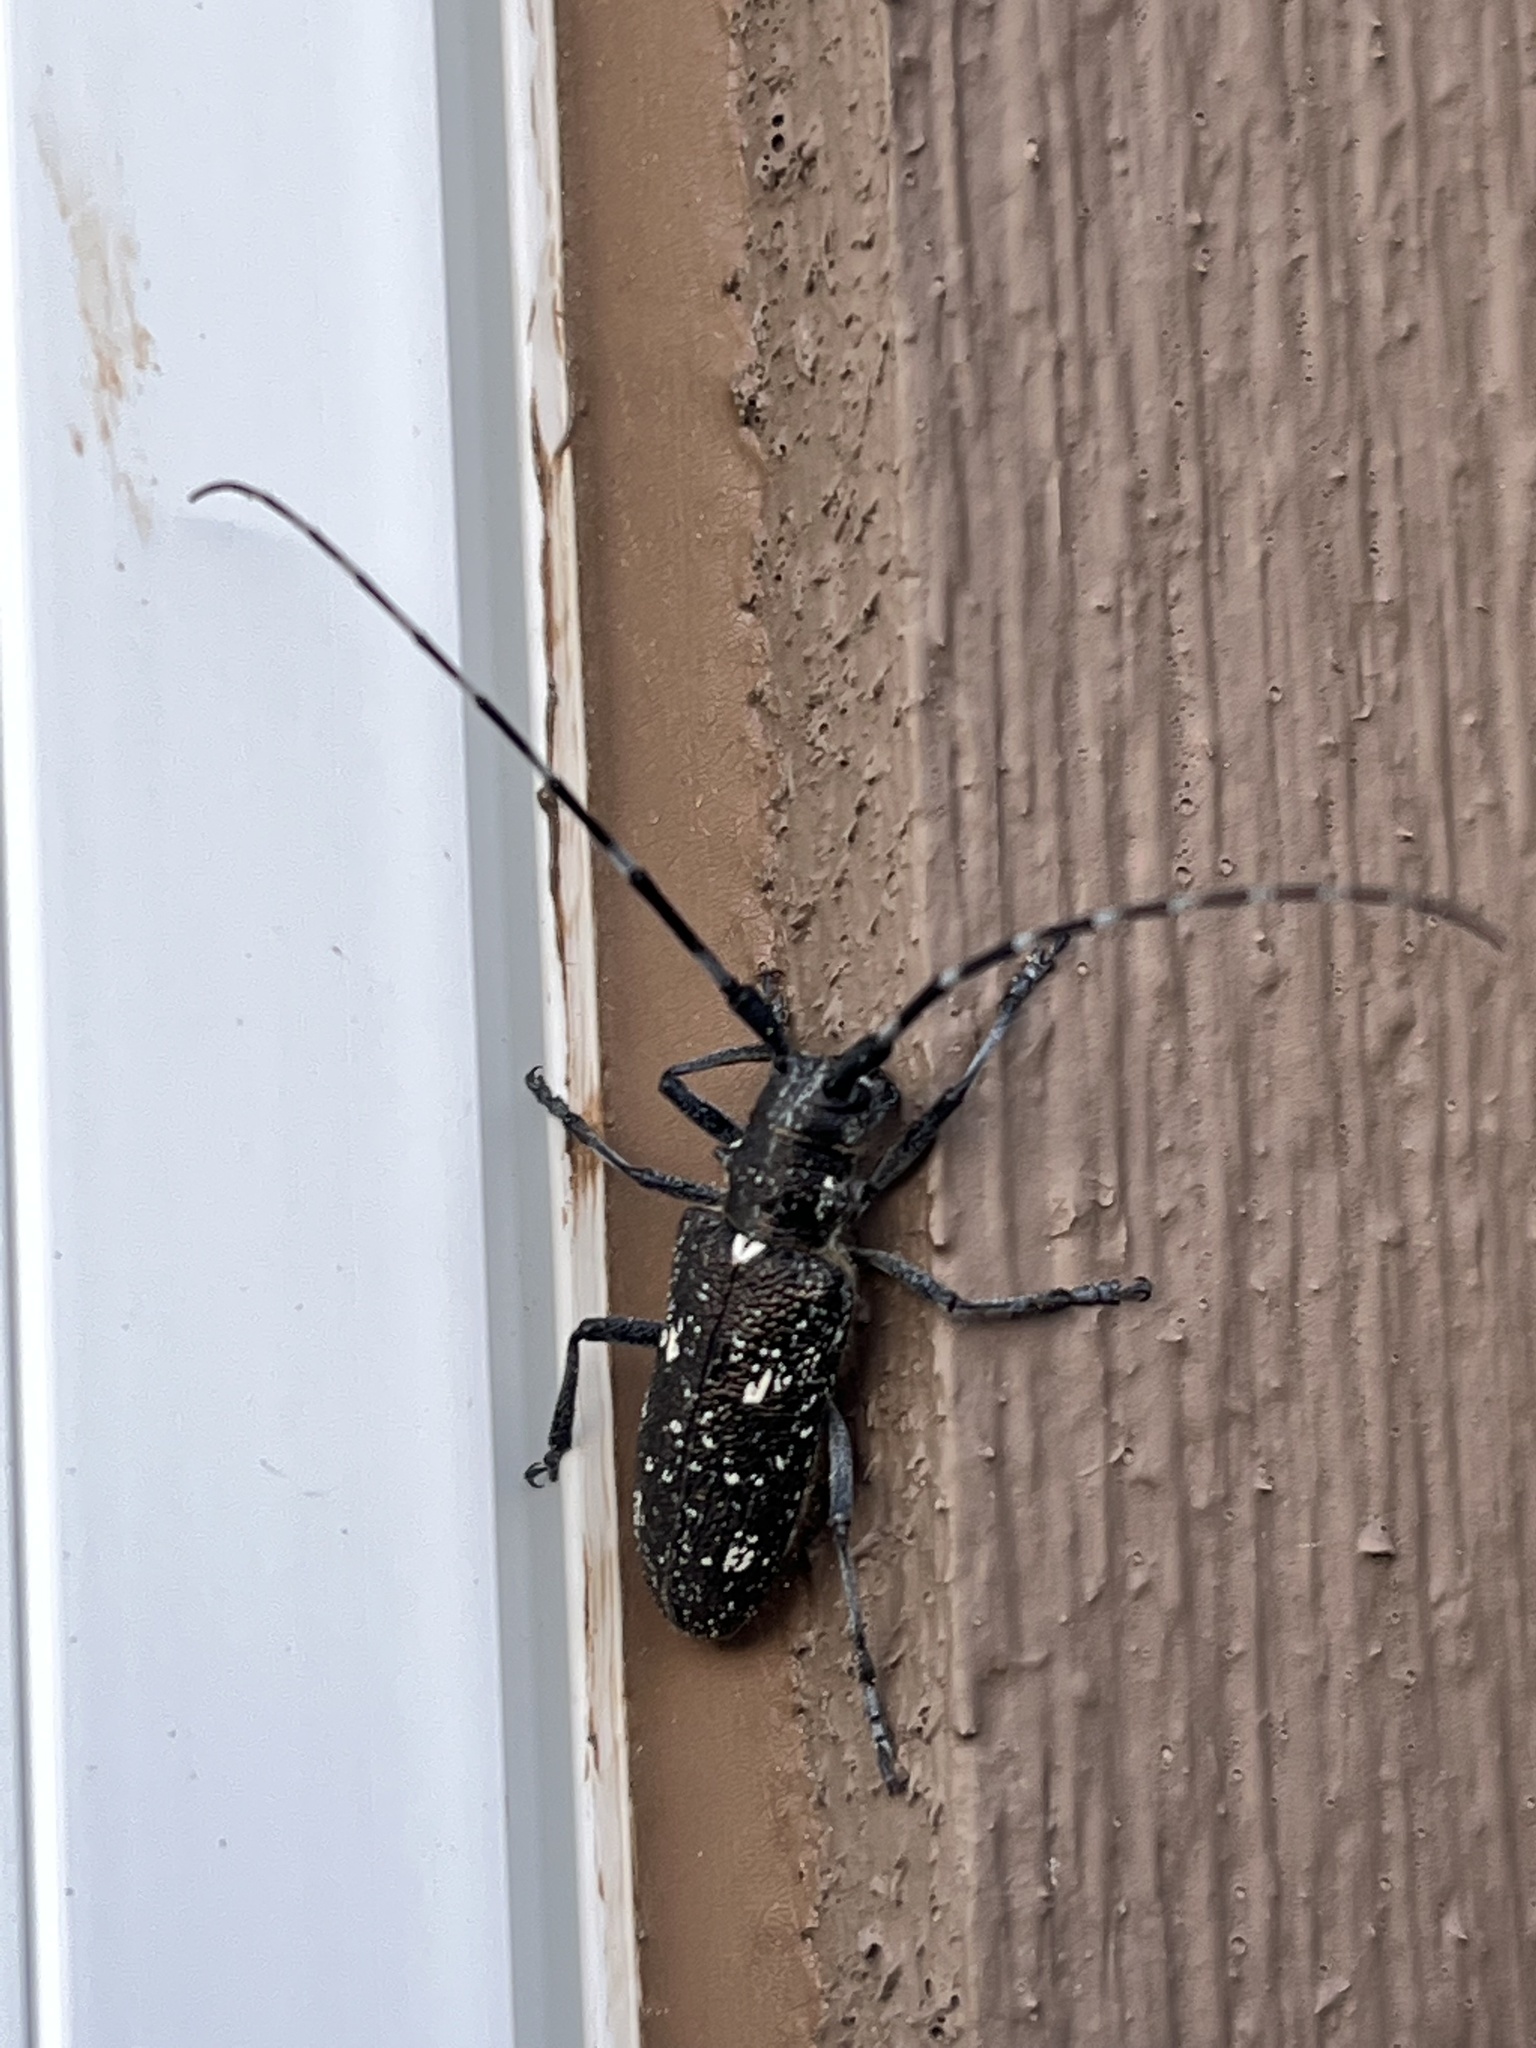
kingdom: Animalia
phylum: Arthropoda
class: Insecta
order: Coleoptera
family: Cerambycidae
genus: Monochamus
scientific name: Monochamus scutellatus
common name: White-spotted sawyer beetle
